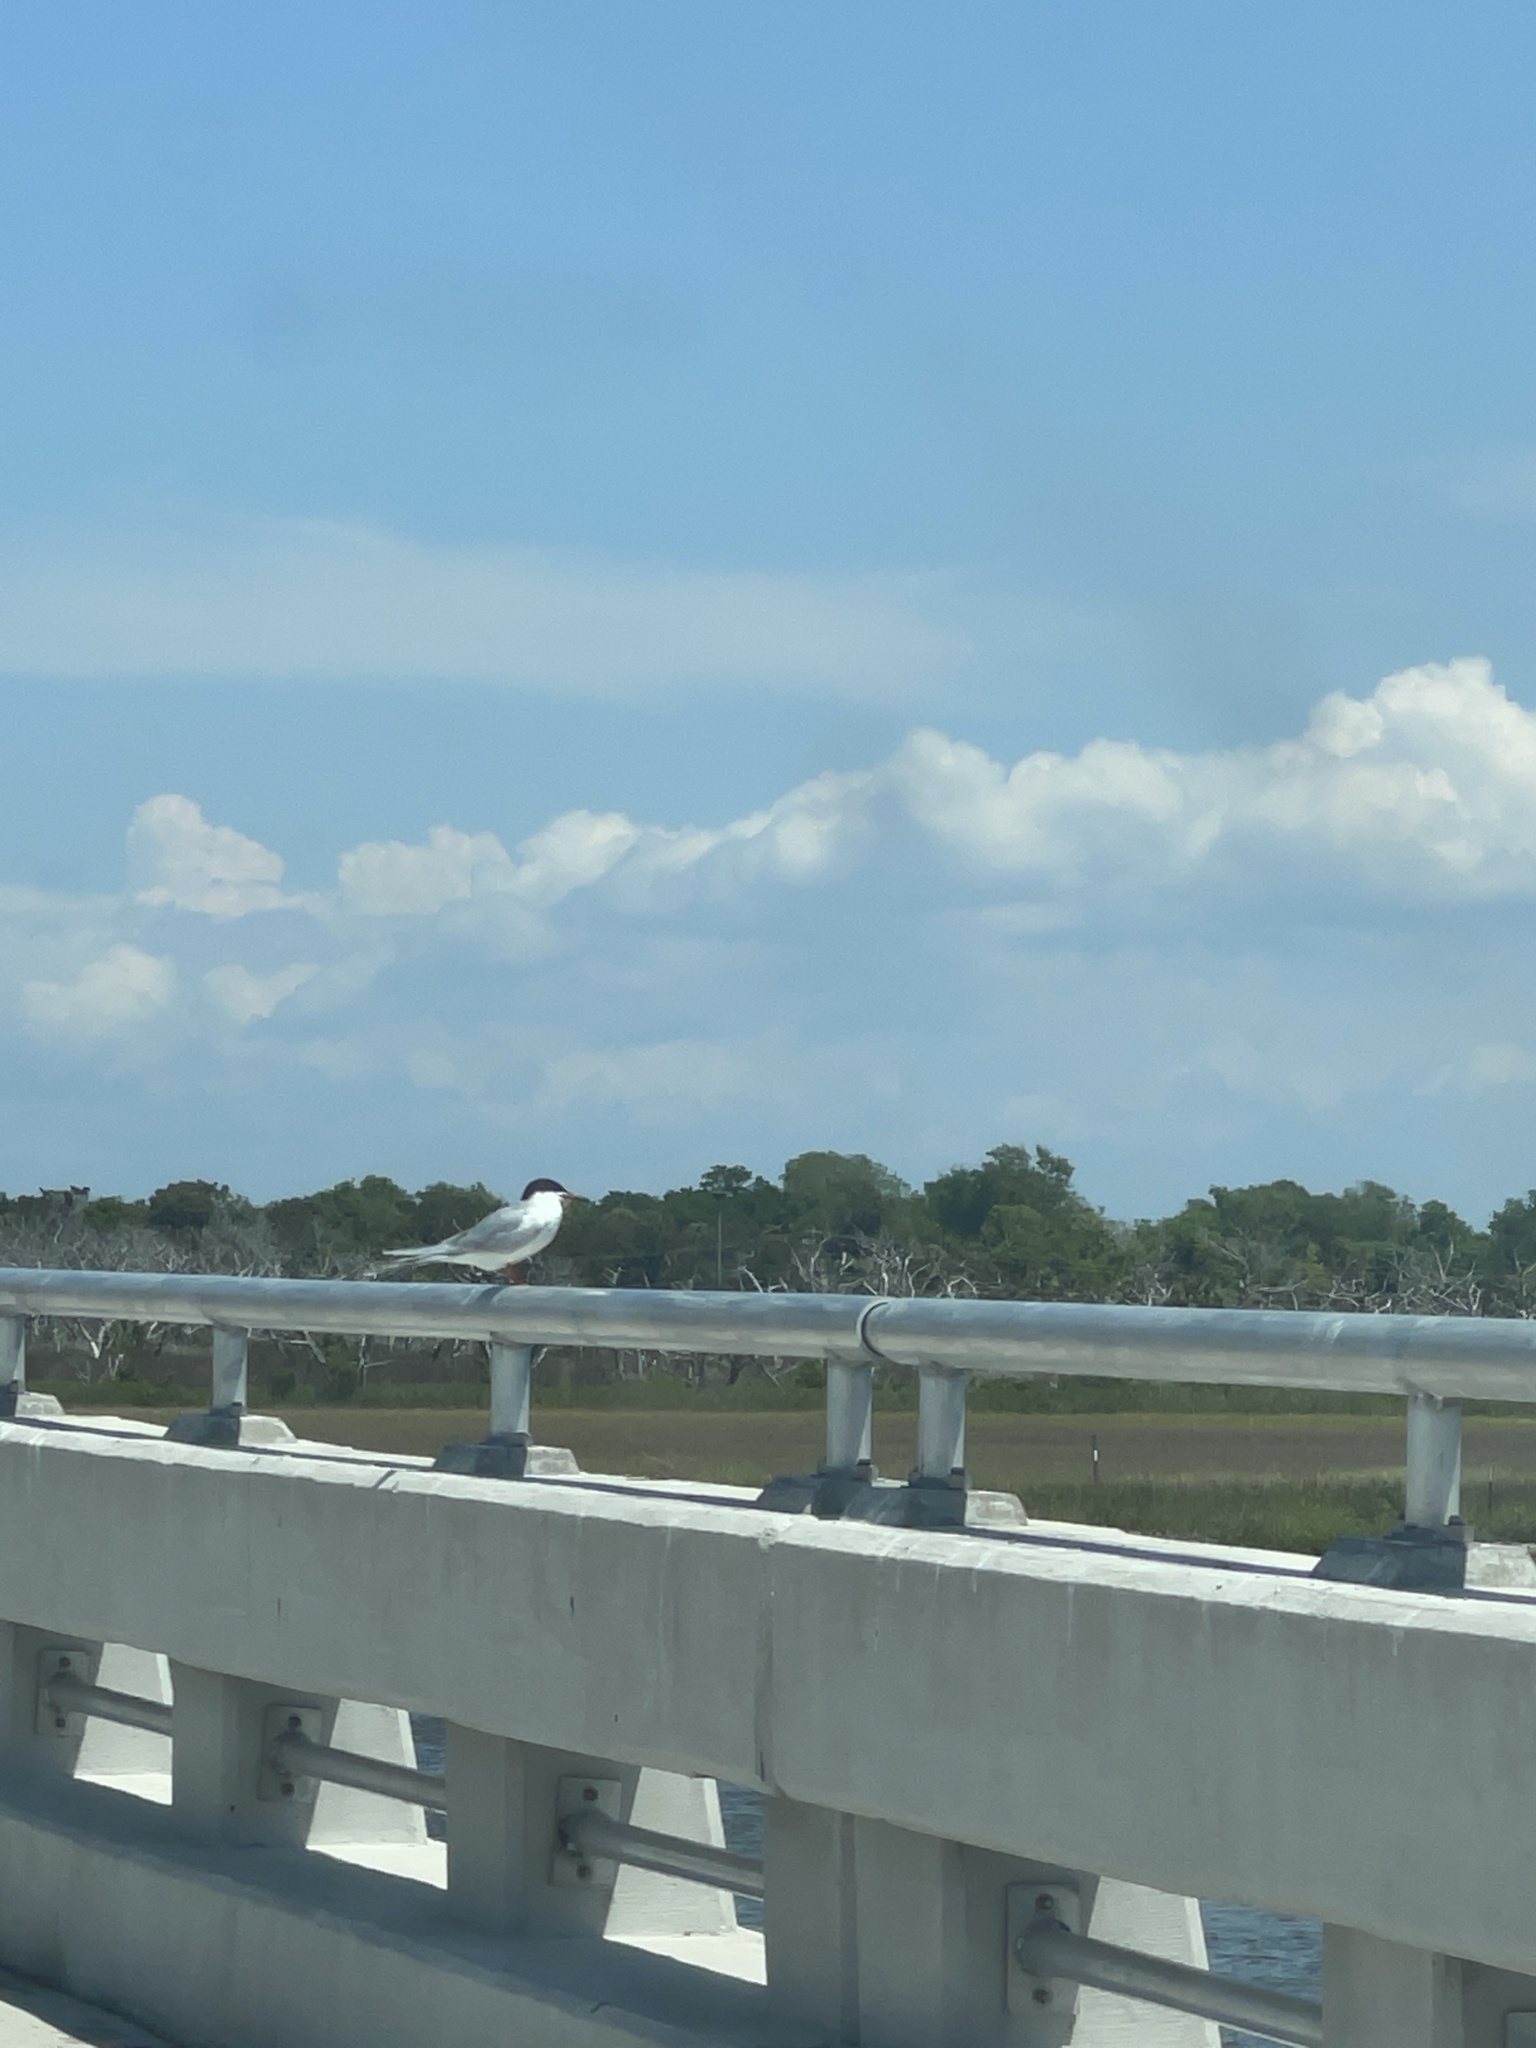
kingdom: Animalia
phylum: Chordata
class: Aves
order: Charadriiformes
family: Laridae
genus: Sterna
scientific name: Sterna forsteri
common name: Forster's tern
